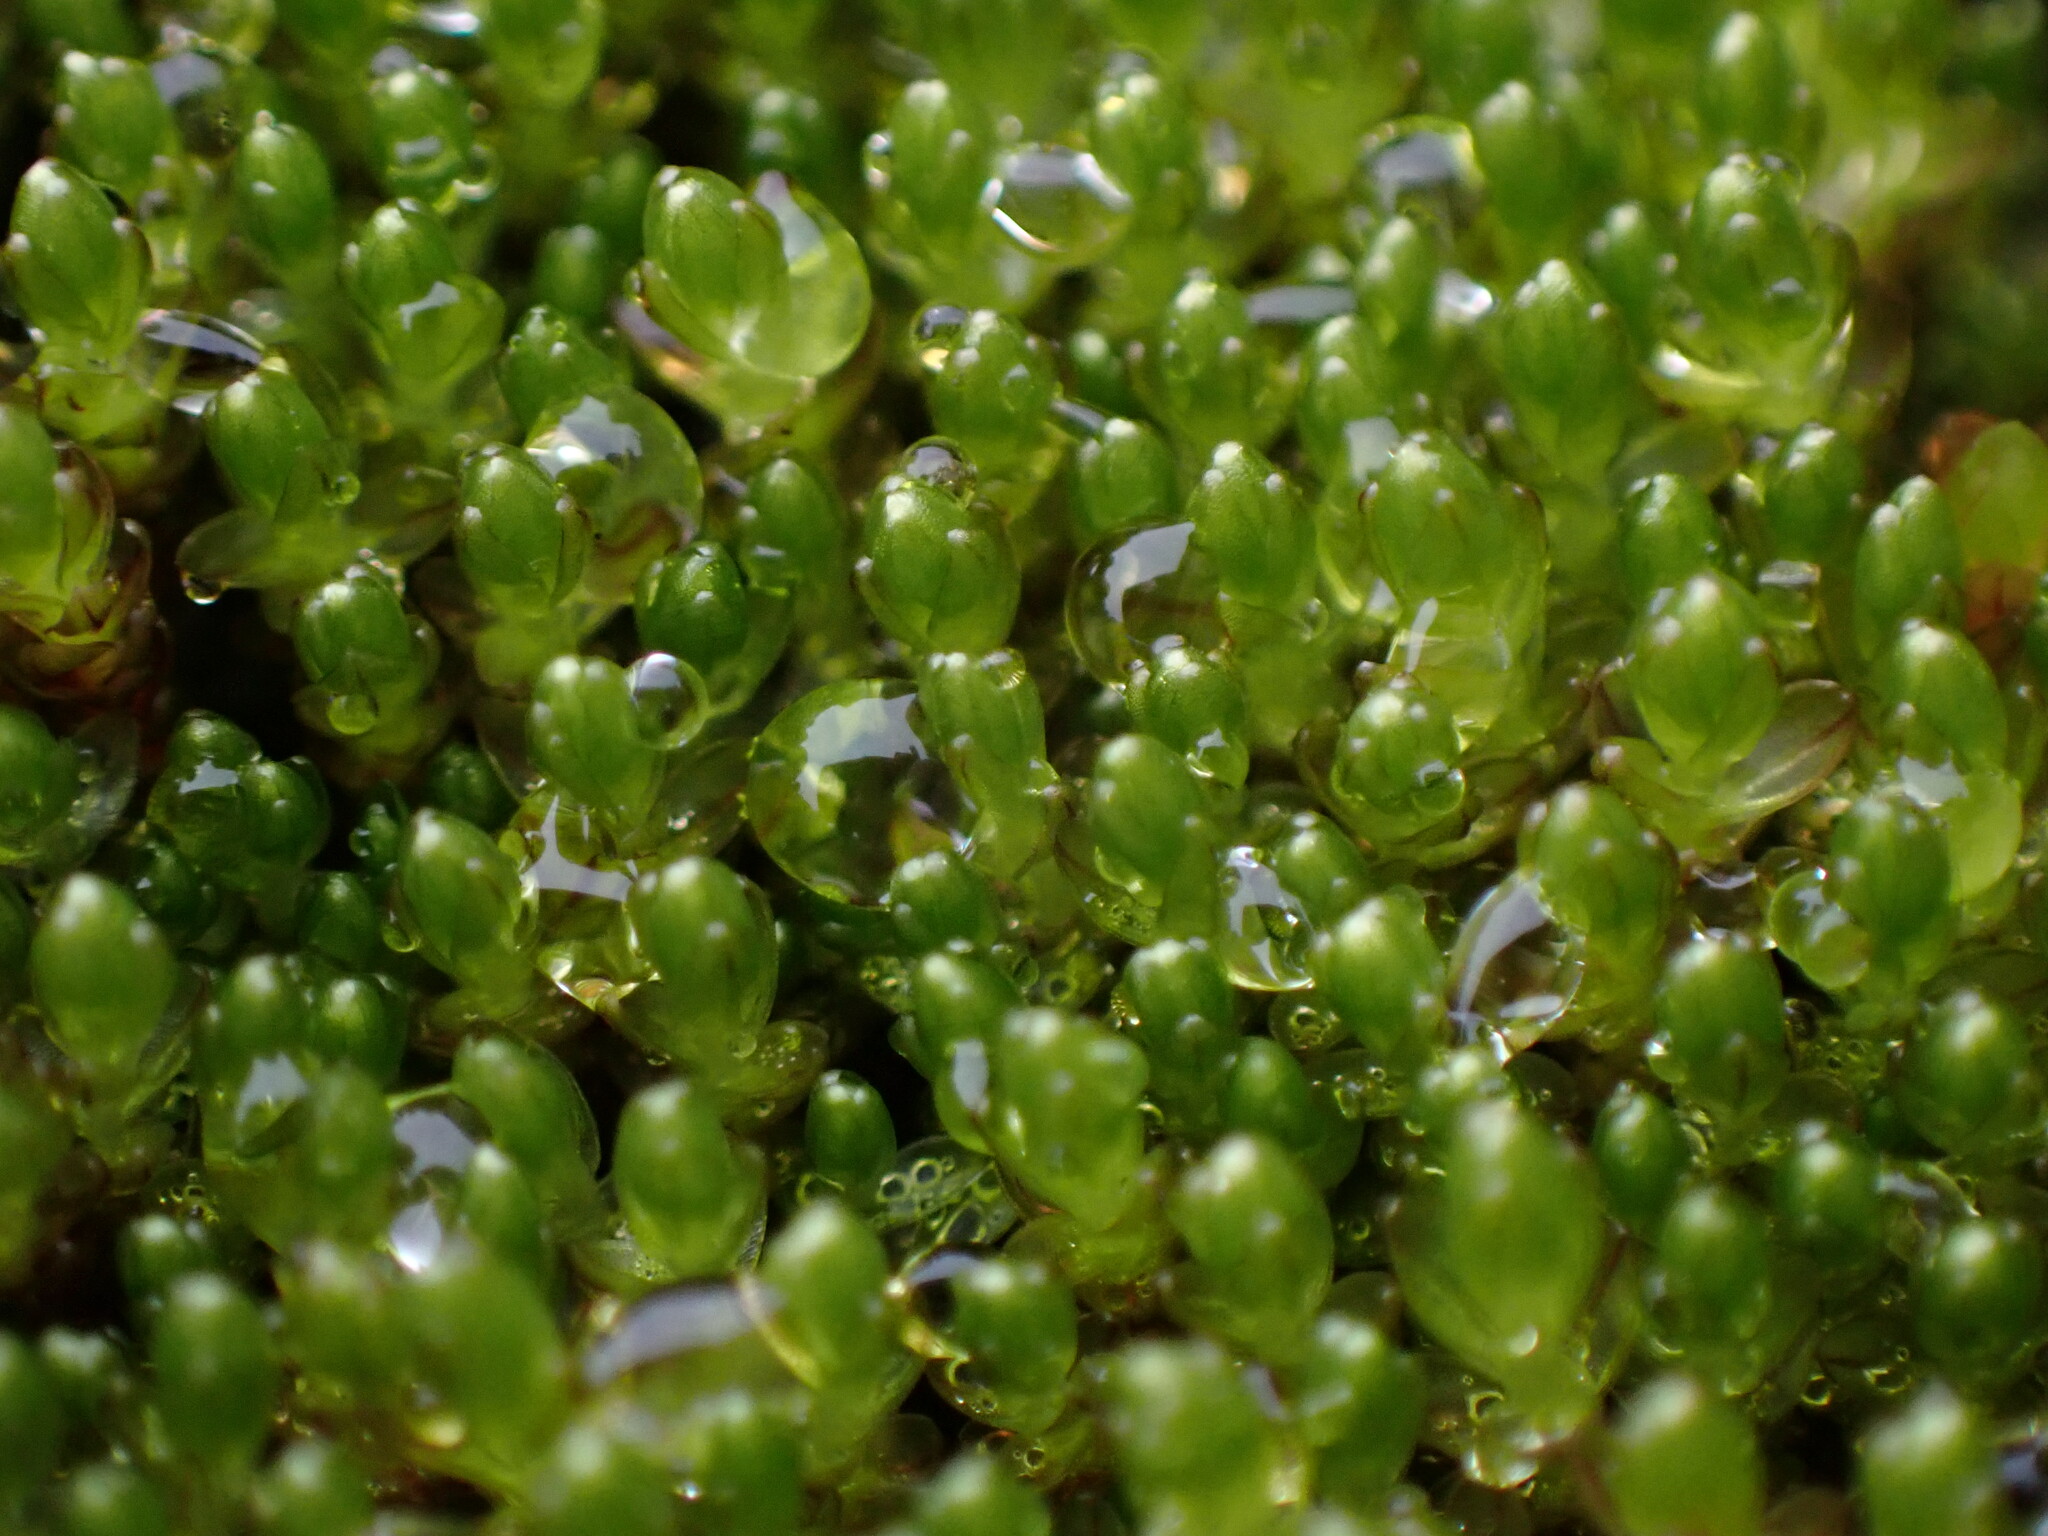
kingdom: Plantae
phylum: Bryophyta
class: Bryopsida
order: Bryales
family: Bryaceae
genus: Imbribryum
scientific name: Imbribryum miniatum
